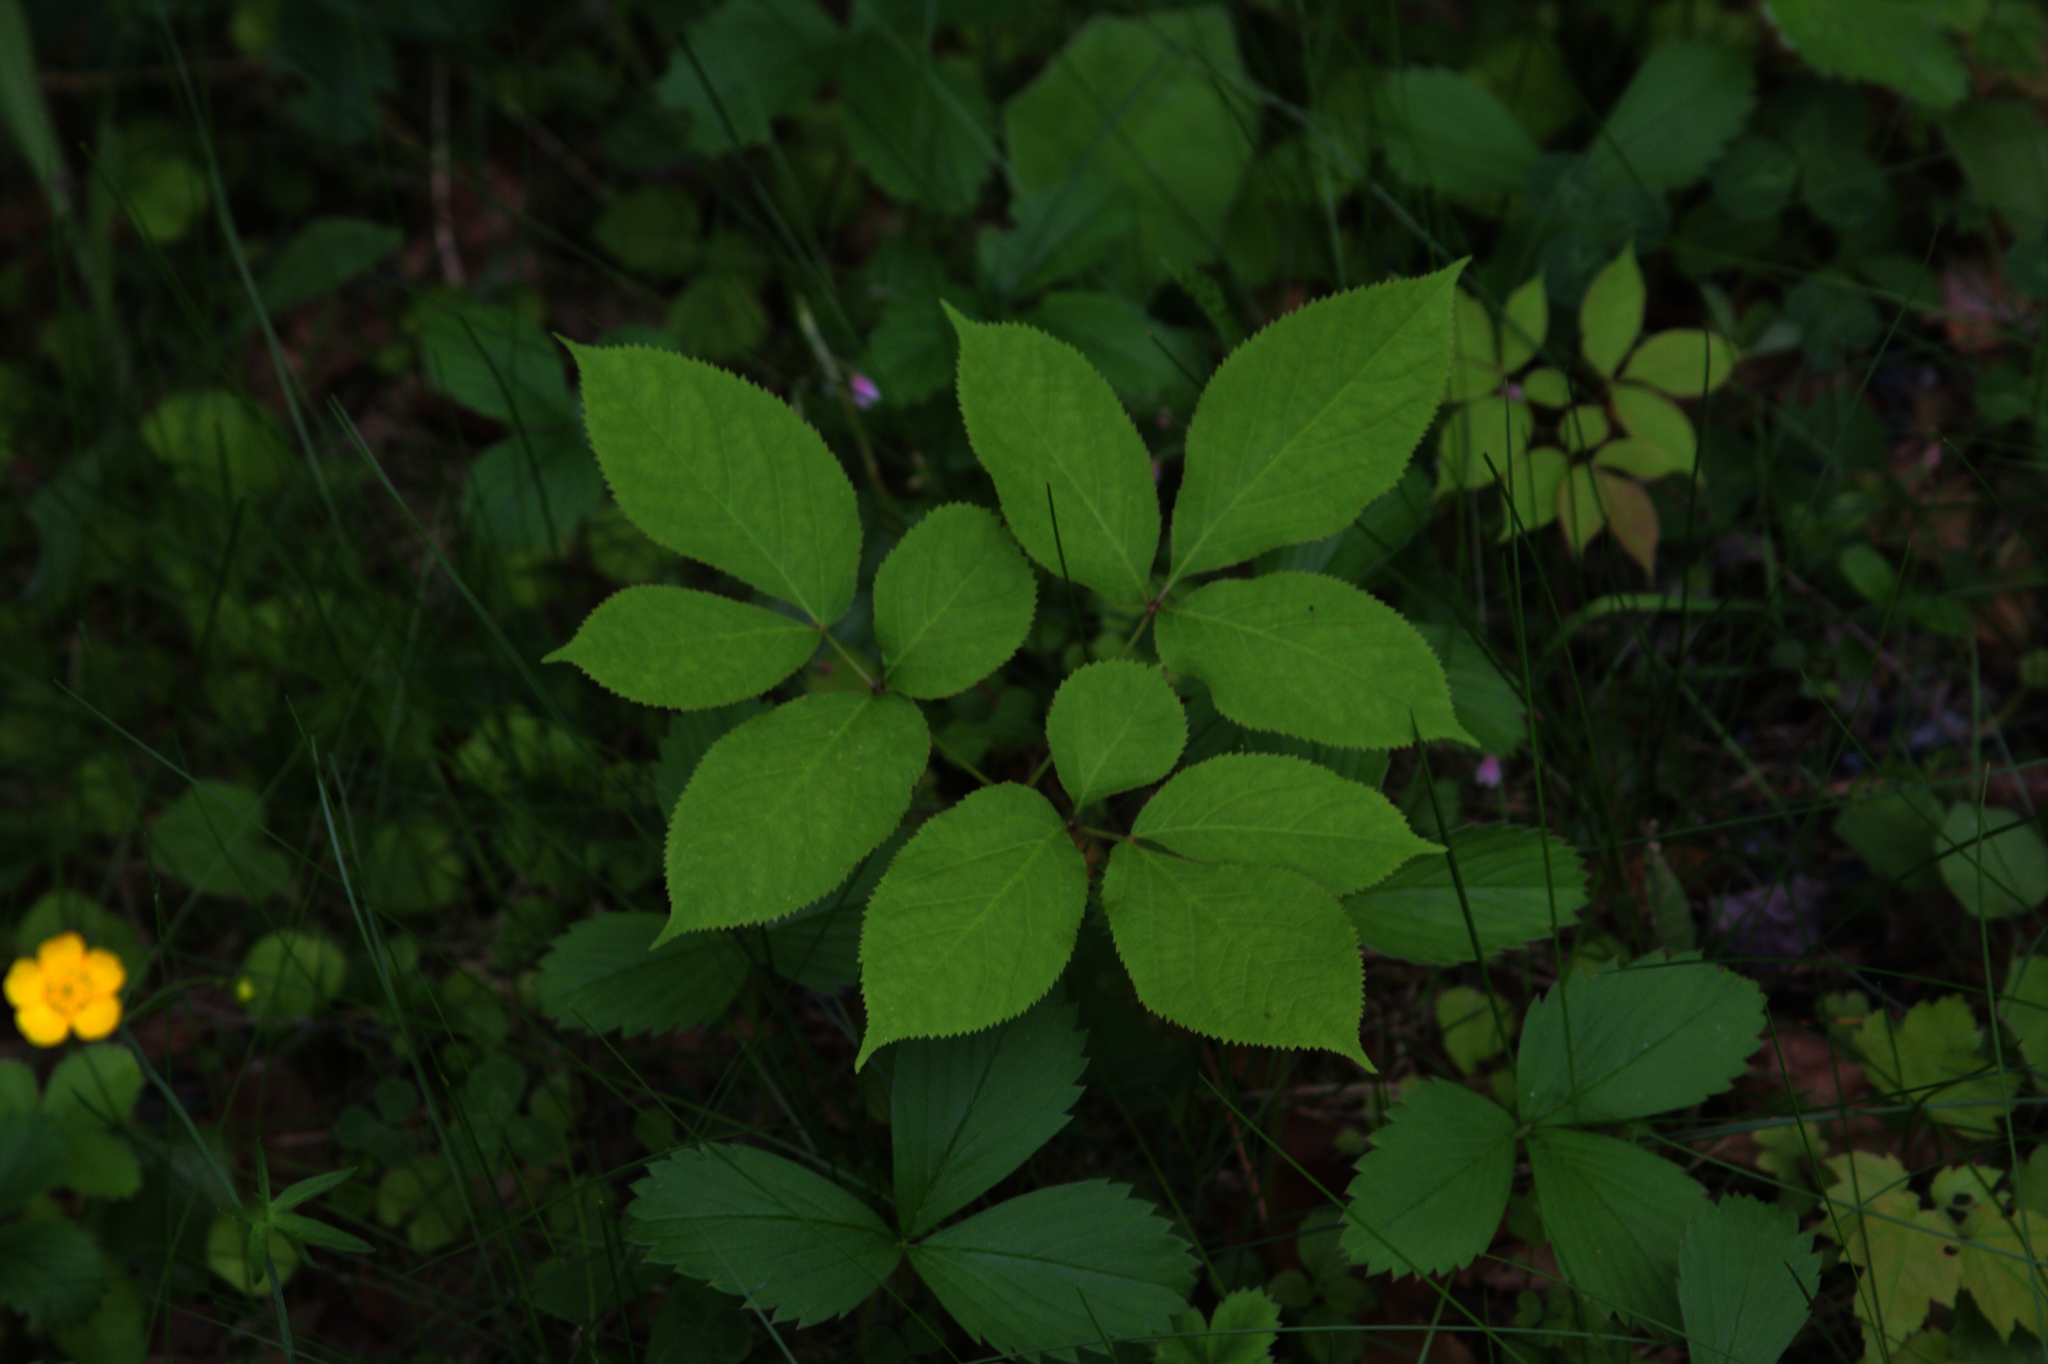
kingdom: Plantae
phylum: Tracheophyta
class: Magnoliopsida
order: Apiales
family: Araliaceae
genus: Aralia
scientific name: Aralia nudicaulis
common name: Wild sarsaparilla
